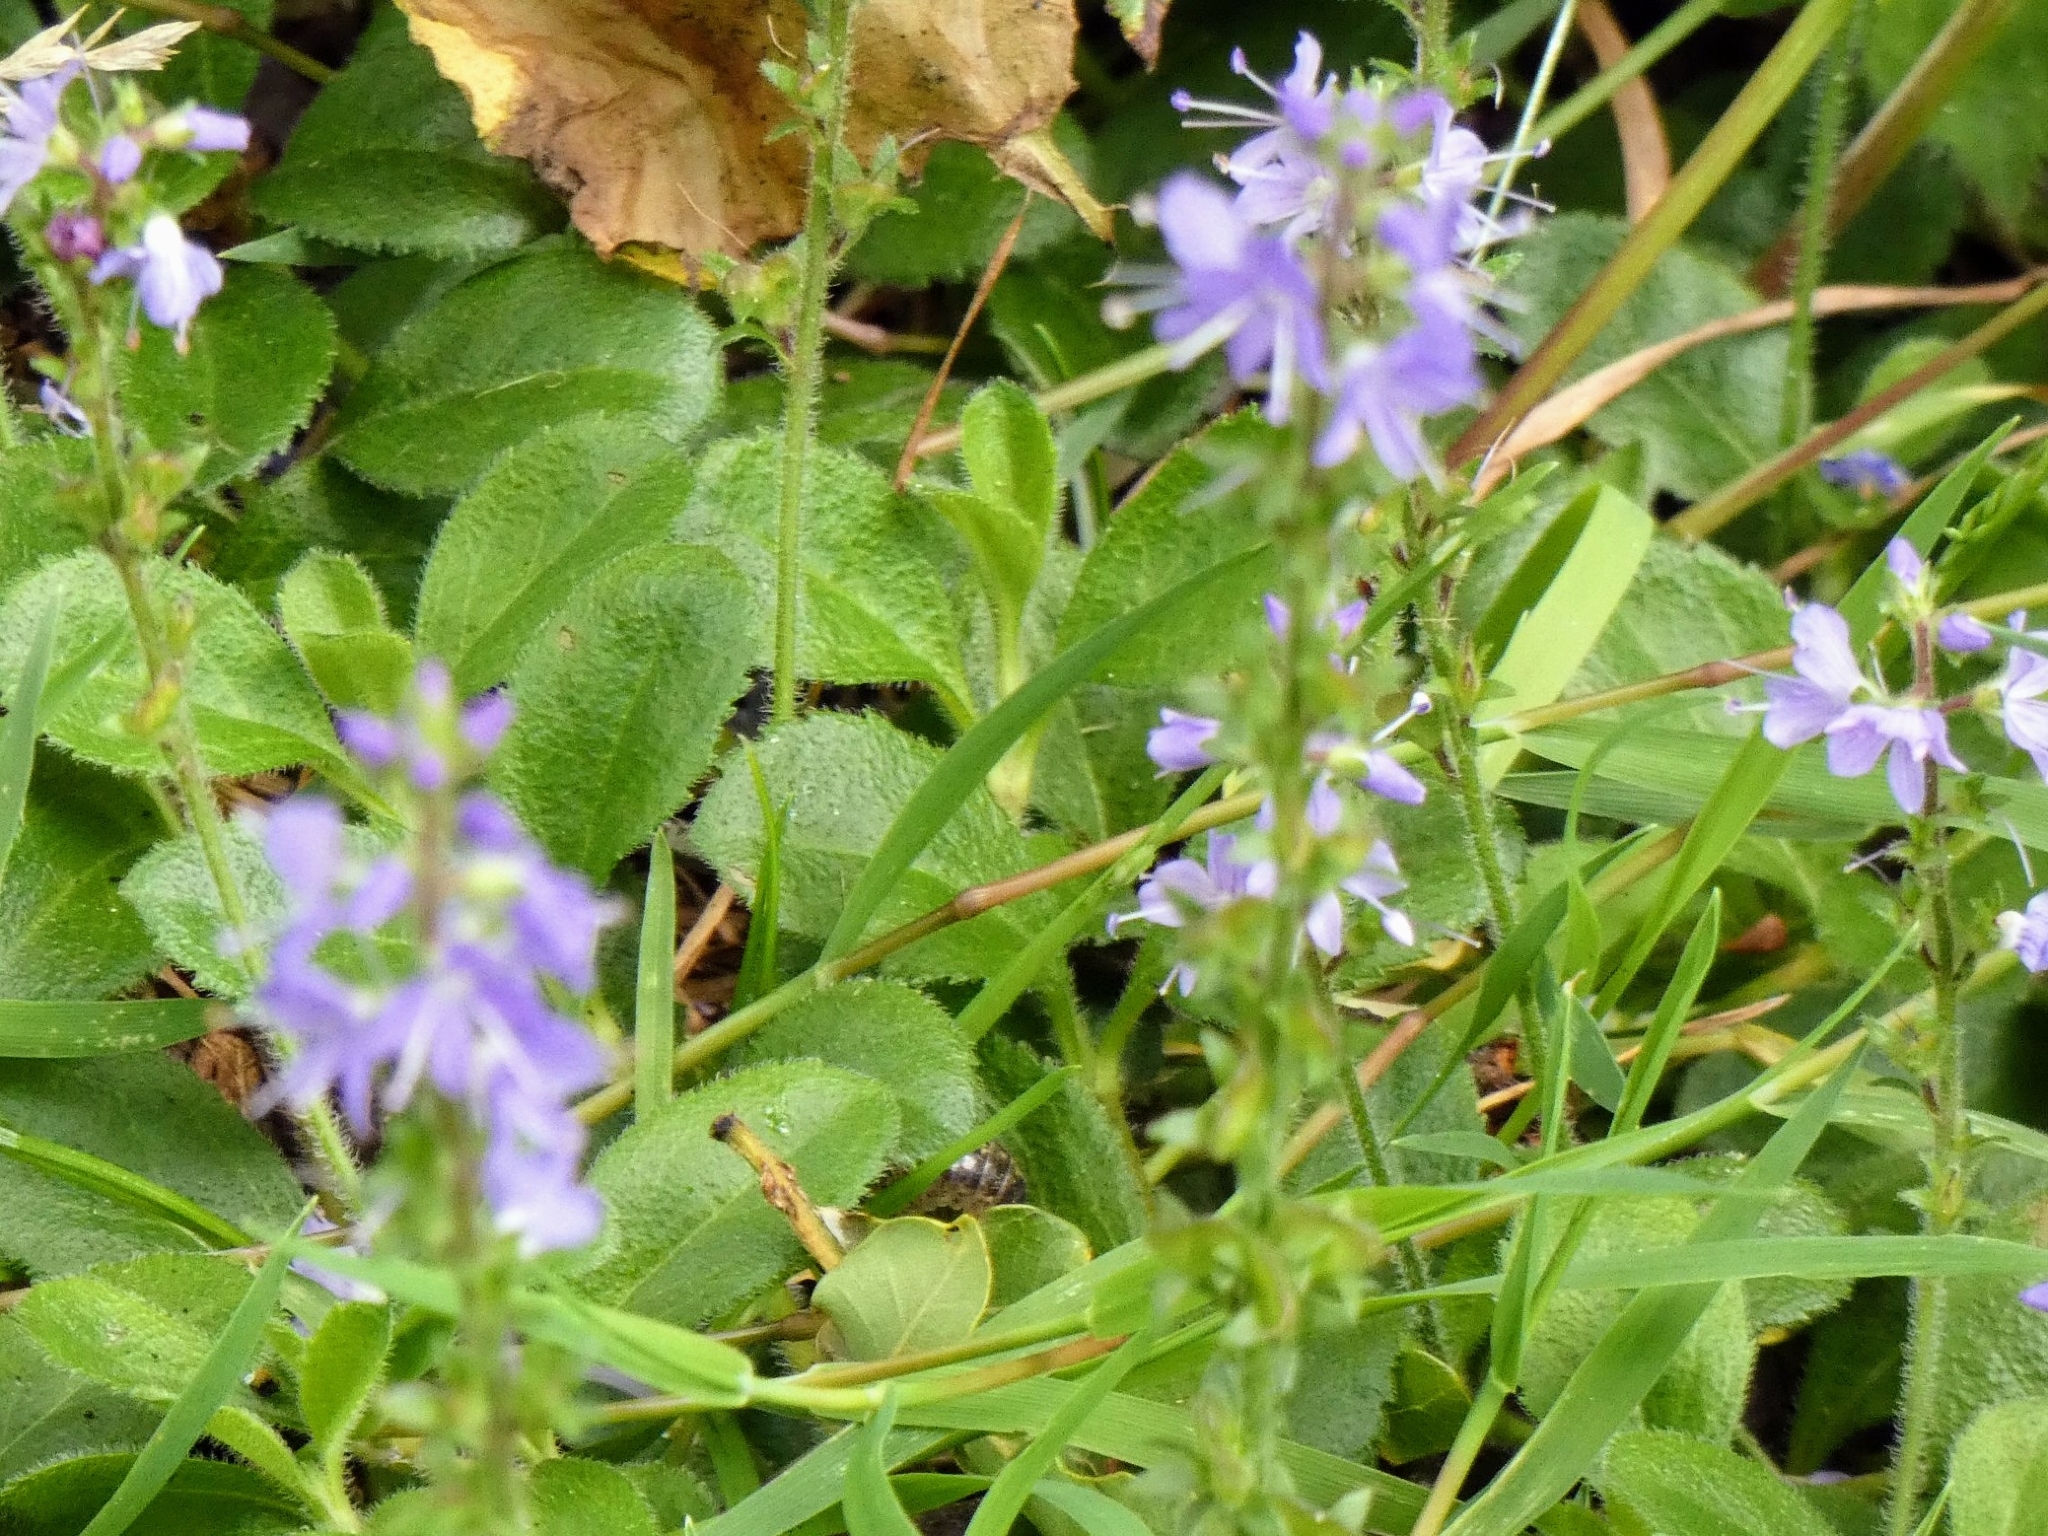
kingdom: Plantae
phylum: Tracheophyta
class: Magnoliopsida
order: Lamiales
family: Plantaginaceae
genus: Veronica
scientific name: Veronica officinalis
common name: Common speedwell
